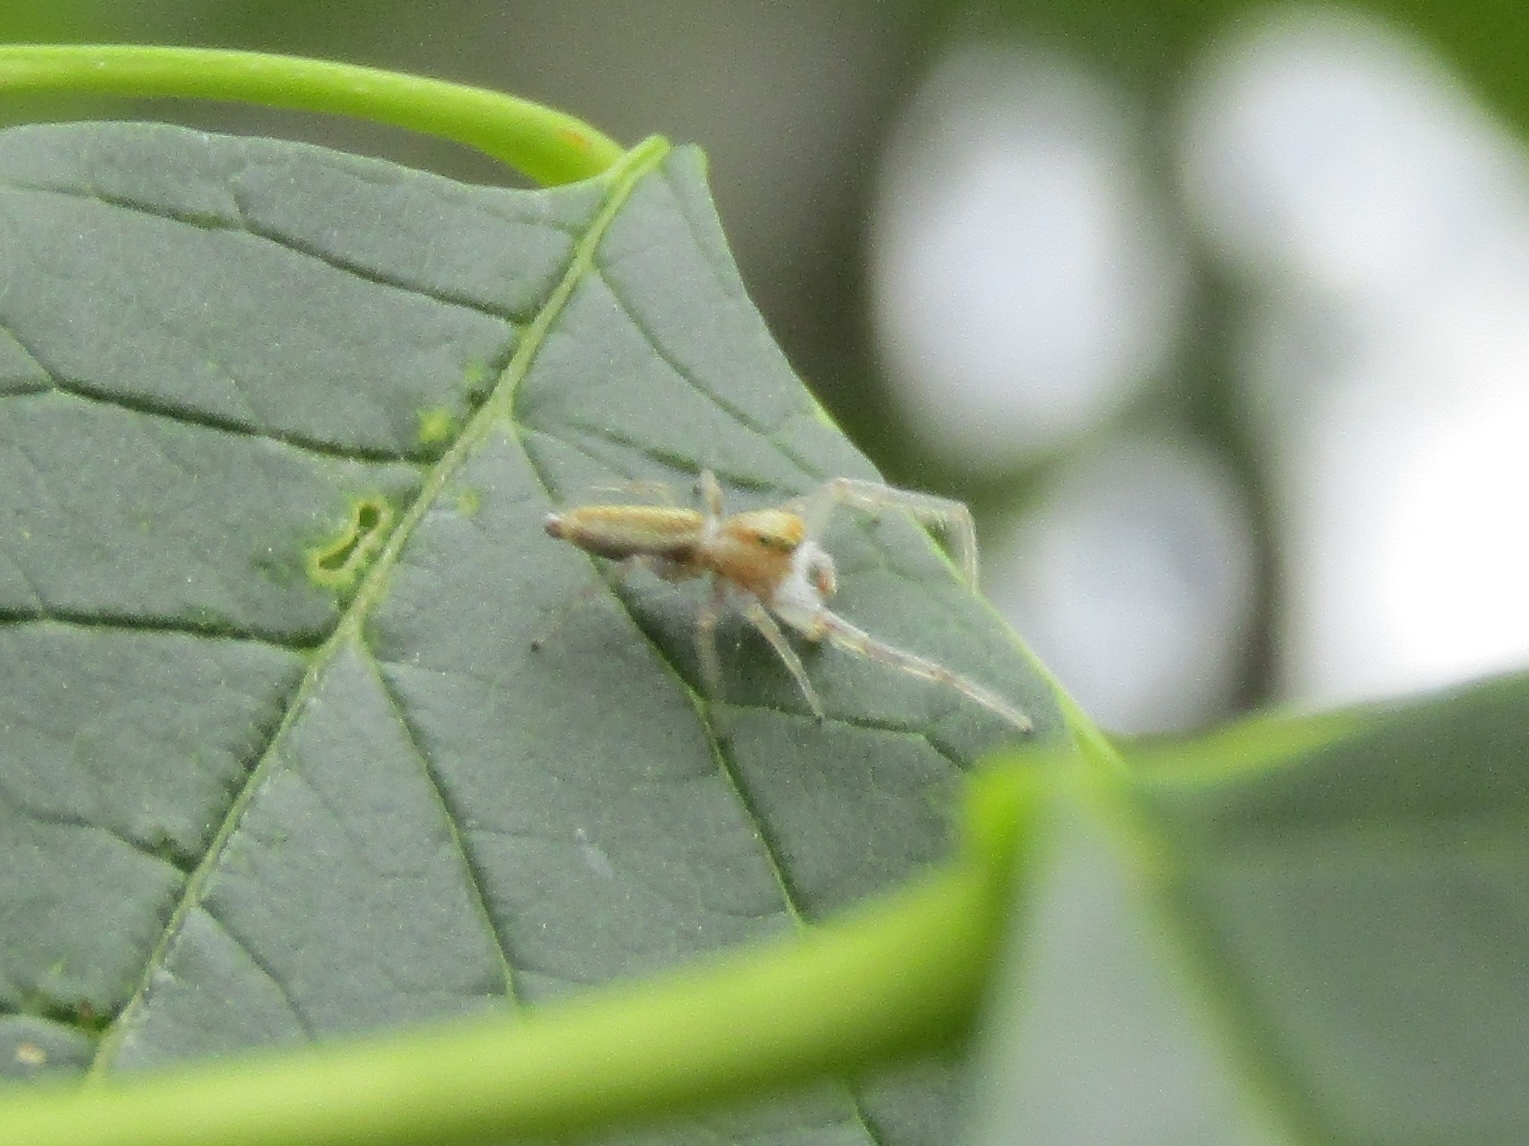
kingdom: Animalia
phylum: Arthropoda
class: Arachnida
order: Araneae
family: Salticidae
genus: Hentzia
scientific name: Hentzia mitrata
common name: White-jawed jumping spider
